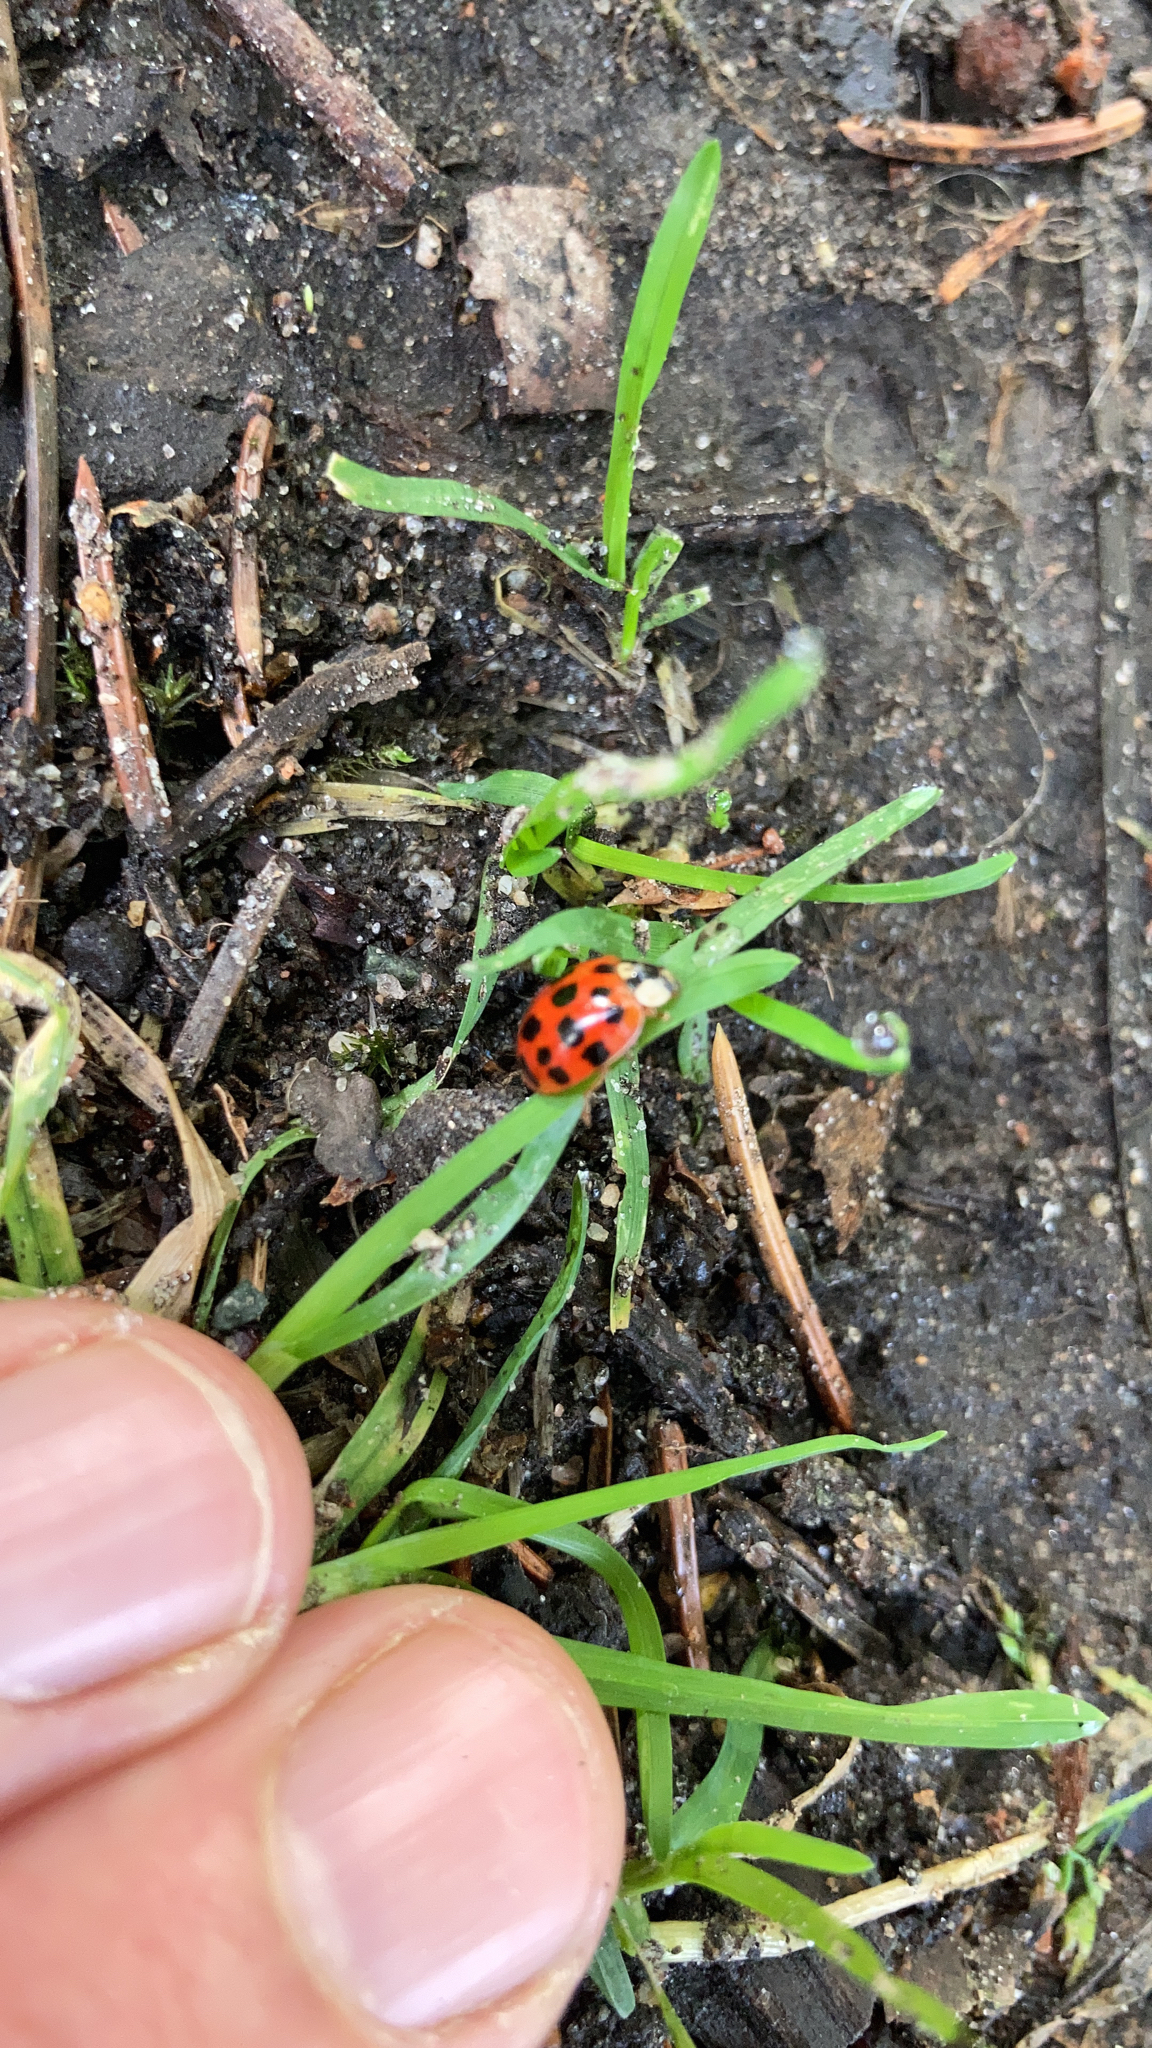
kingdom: Animalia
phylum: Arthropoda
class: Insecta
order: Coleoptera
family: Coccinellidae
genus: Harmonia
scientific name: Harmonia axyridis
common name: Harlequin ladybird
